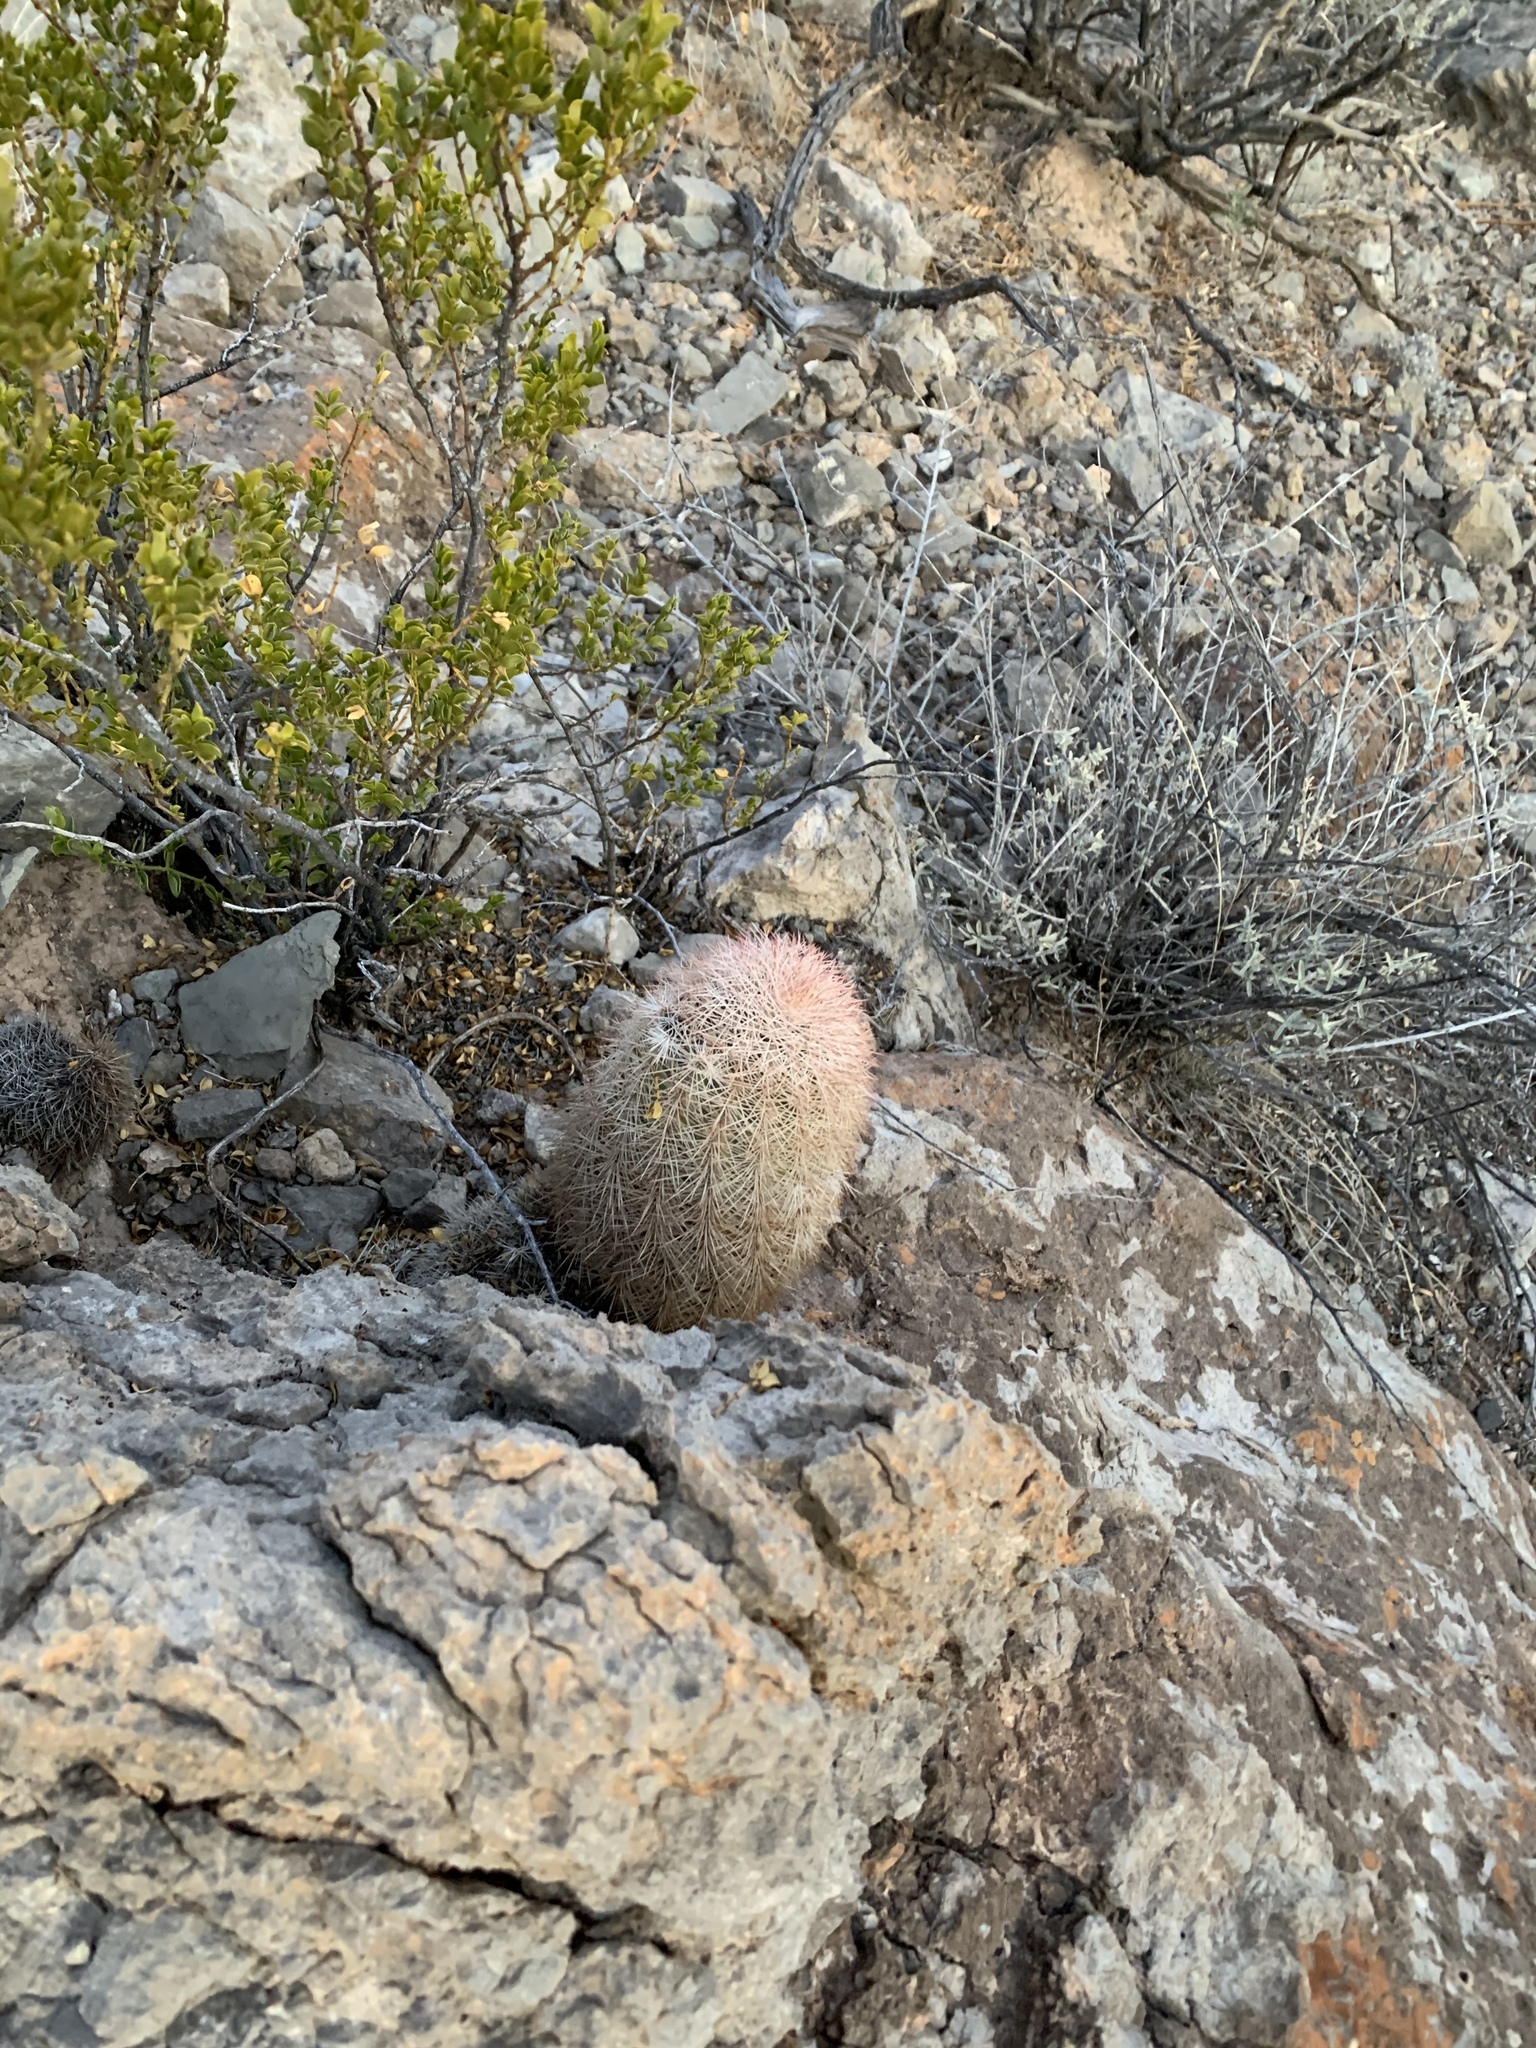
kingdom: Plantae
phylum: Tracheophyta
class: Magnoliopsida
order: Caryophyllales
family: Cactaceae
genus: Echinocereus
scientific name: Echinocereus dasyacanthus
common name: Spiny hedgehog cactus
